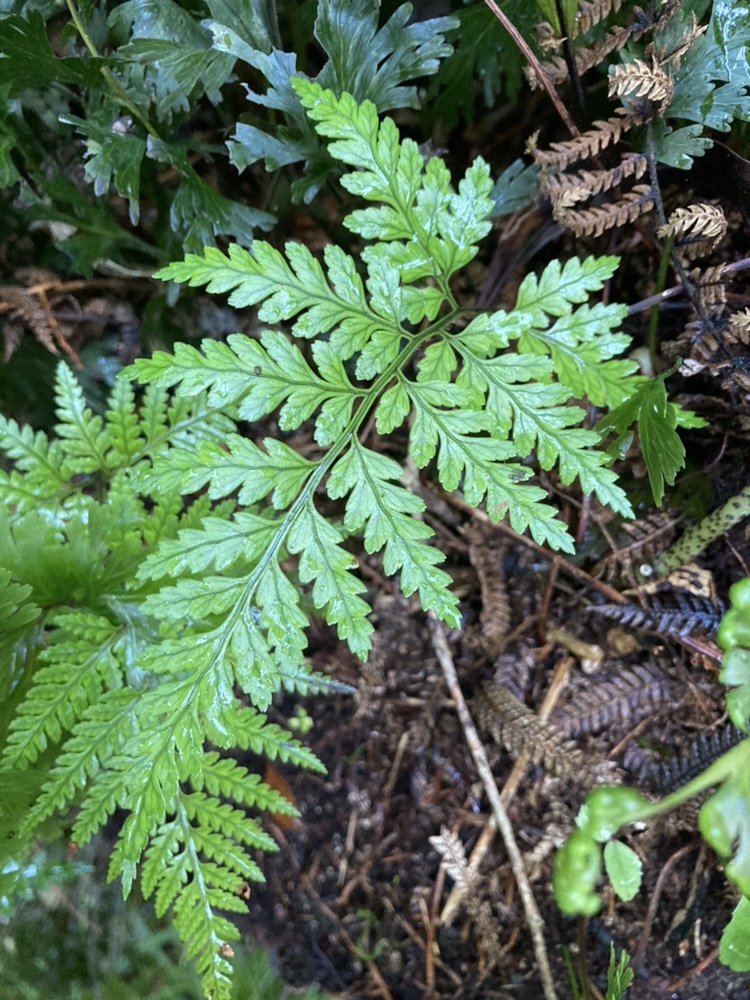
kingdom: Plantae
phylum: Tracheophyta
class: Polypodiopsida
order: Polypodiales
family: Dryopteridaceae
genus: Rumohra
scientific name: Rumohra adiantiformis
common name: Leather fern
